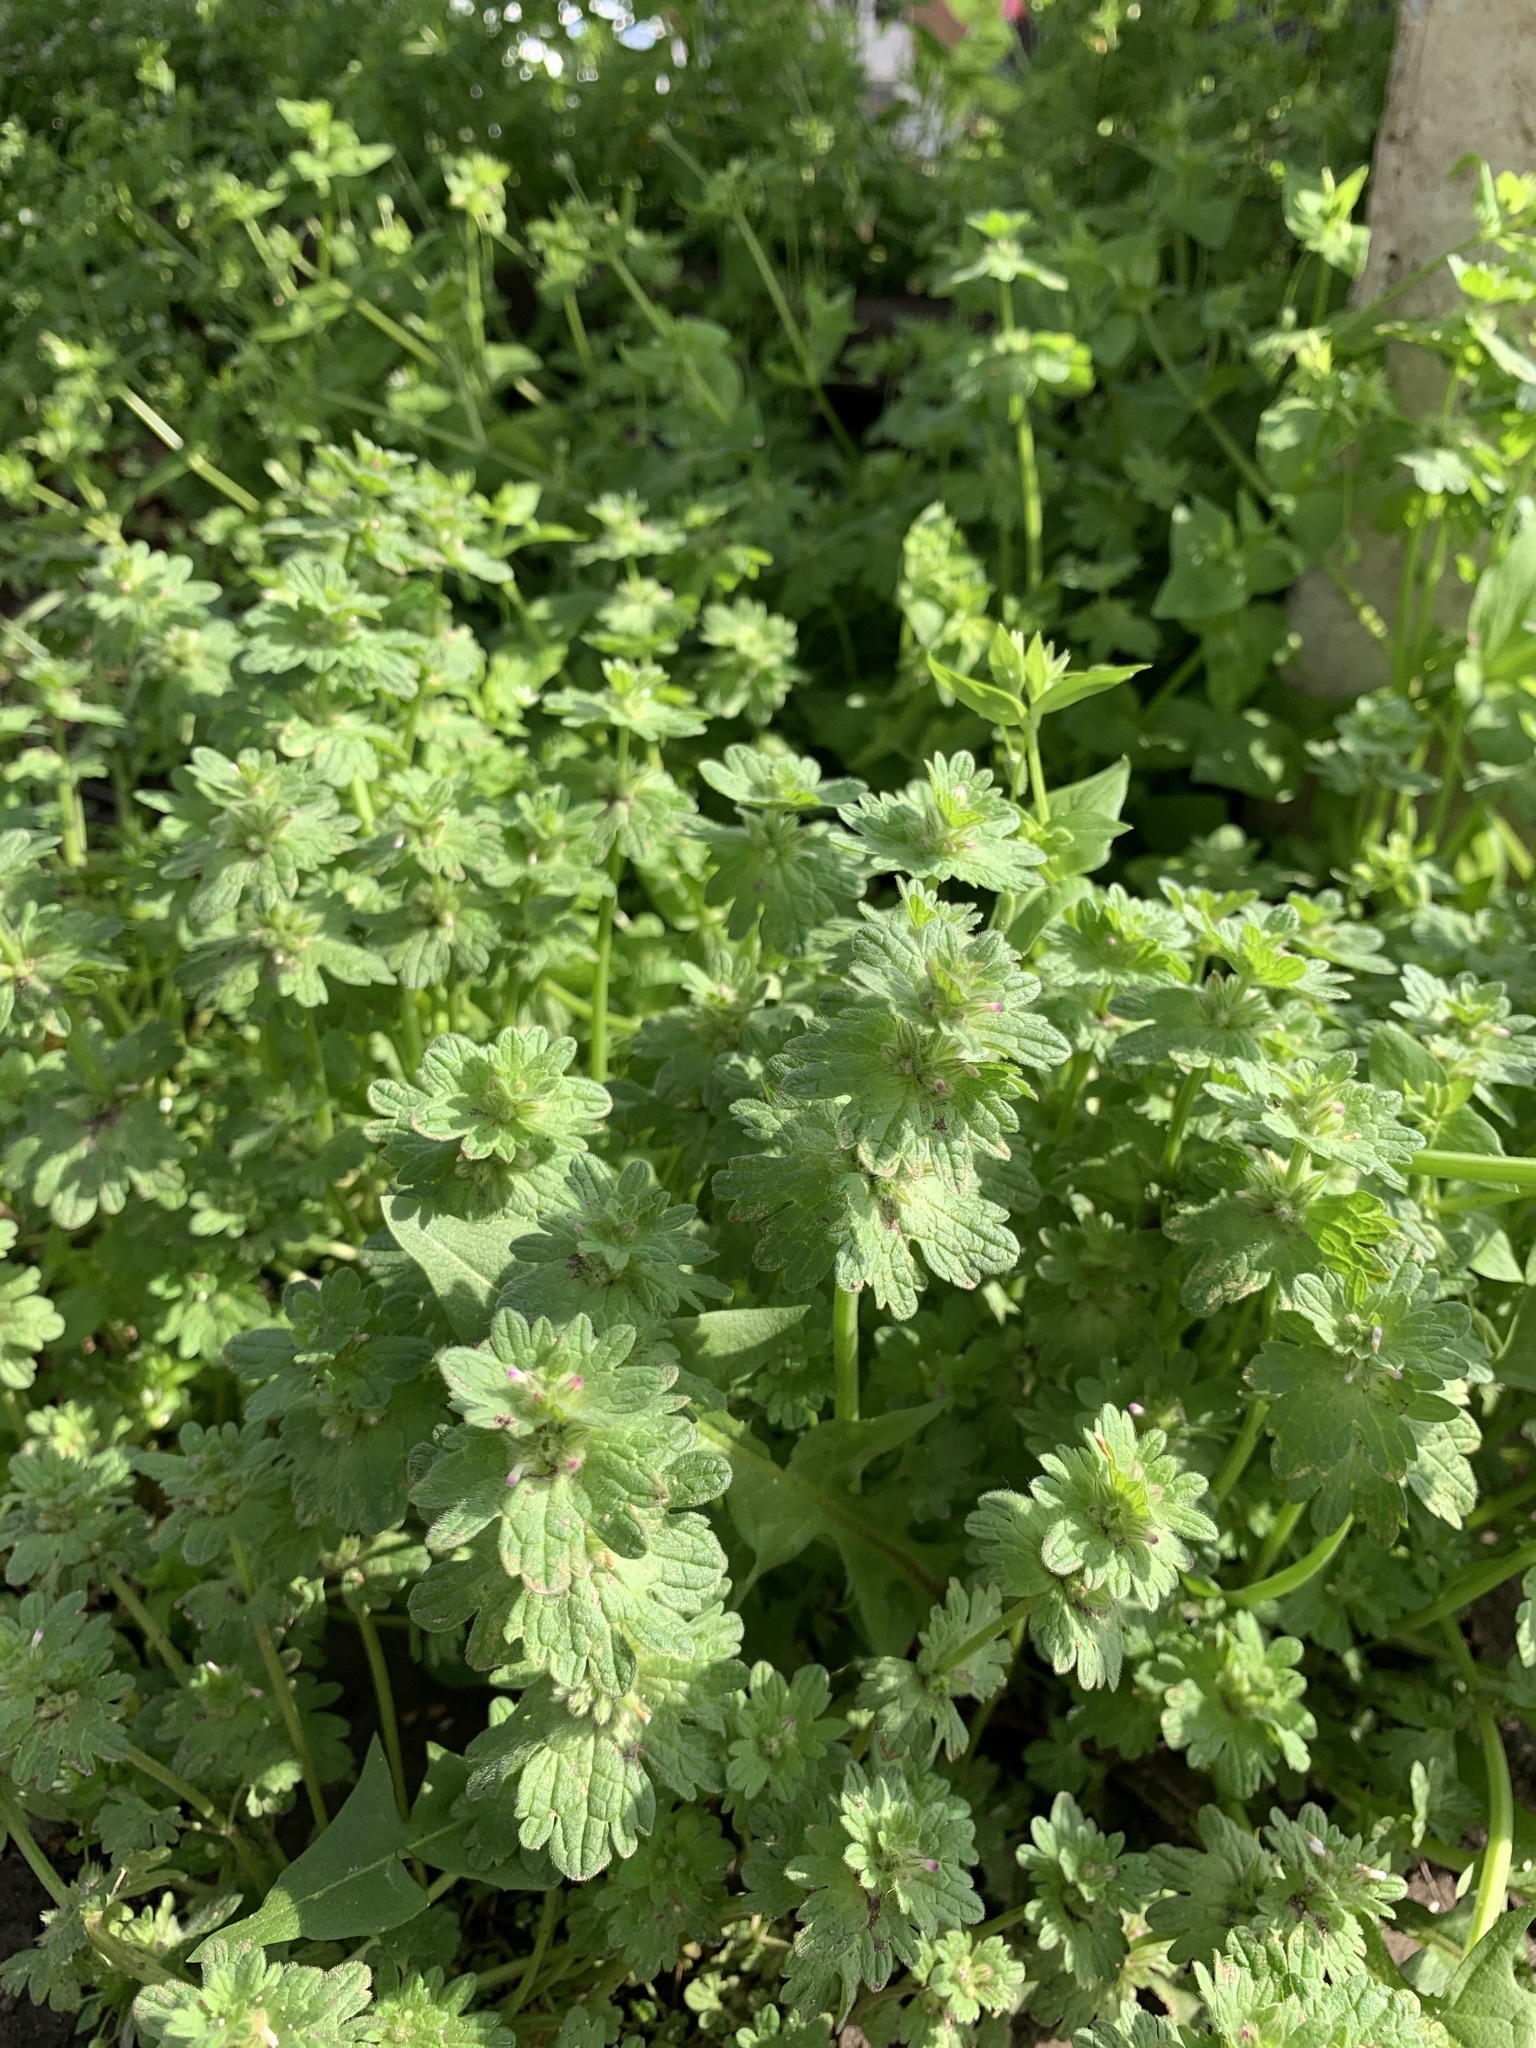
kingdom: Plantae
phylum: Tracheophyta
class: Magnoliopsida
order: Lamiales
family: Lamiaceae
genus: Lamium
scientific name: Lamium amplexicaule
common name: Henbit dead-nettle
